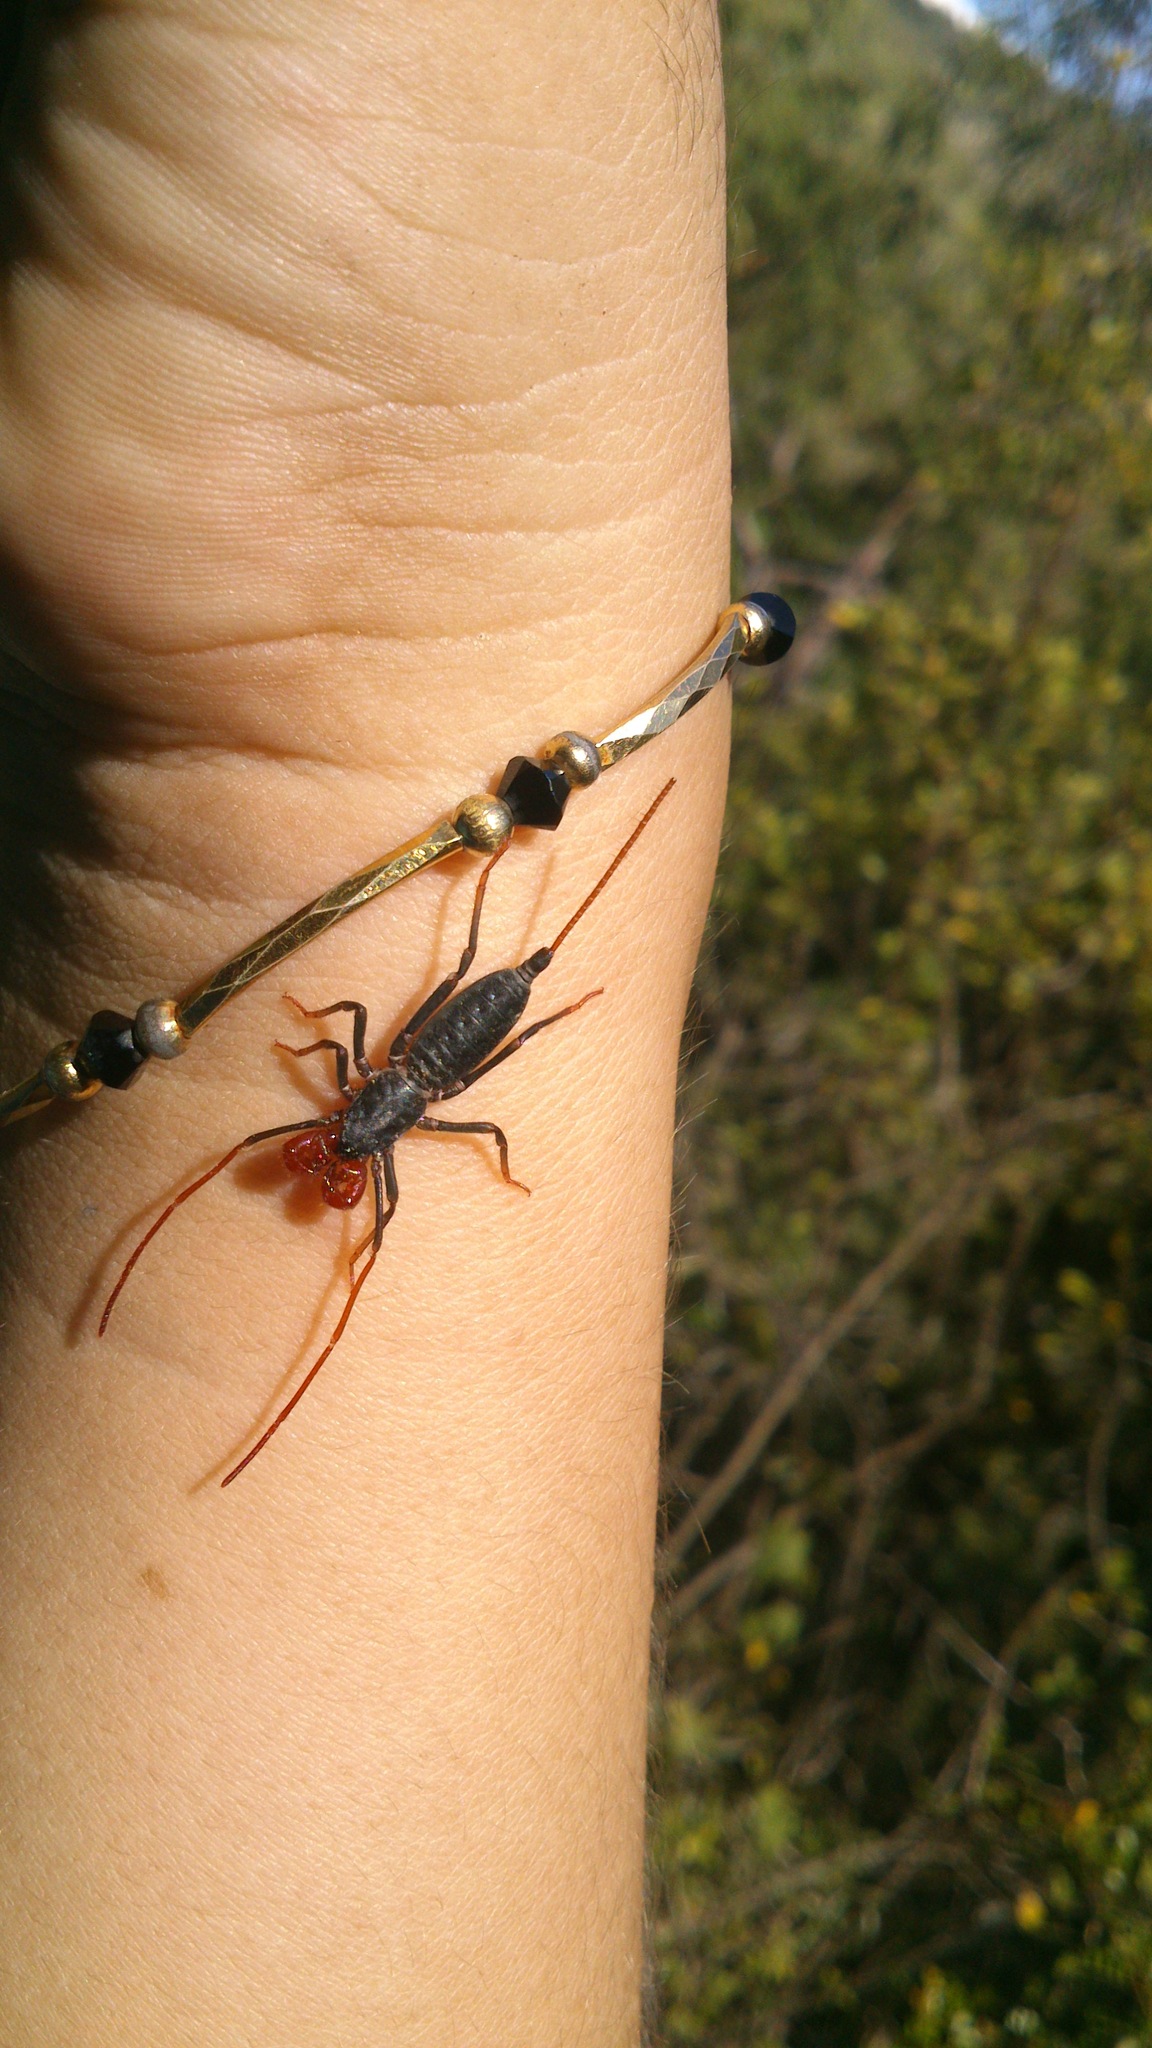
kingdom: Animalia
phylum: Arthropoda
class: Arachnida
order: Uropygi
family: Thelyphonidae
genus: Mastigoproctus
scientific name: Mastigoproctus giganteus
